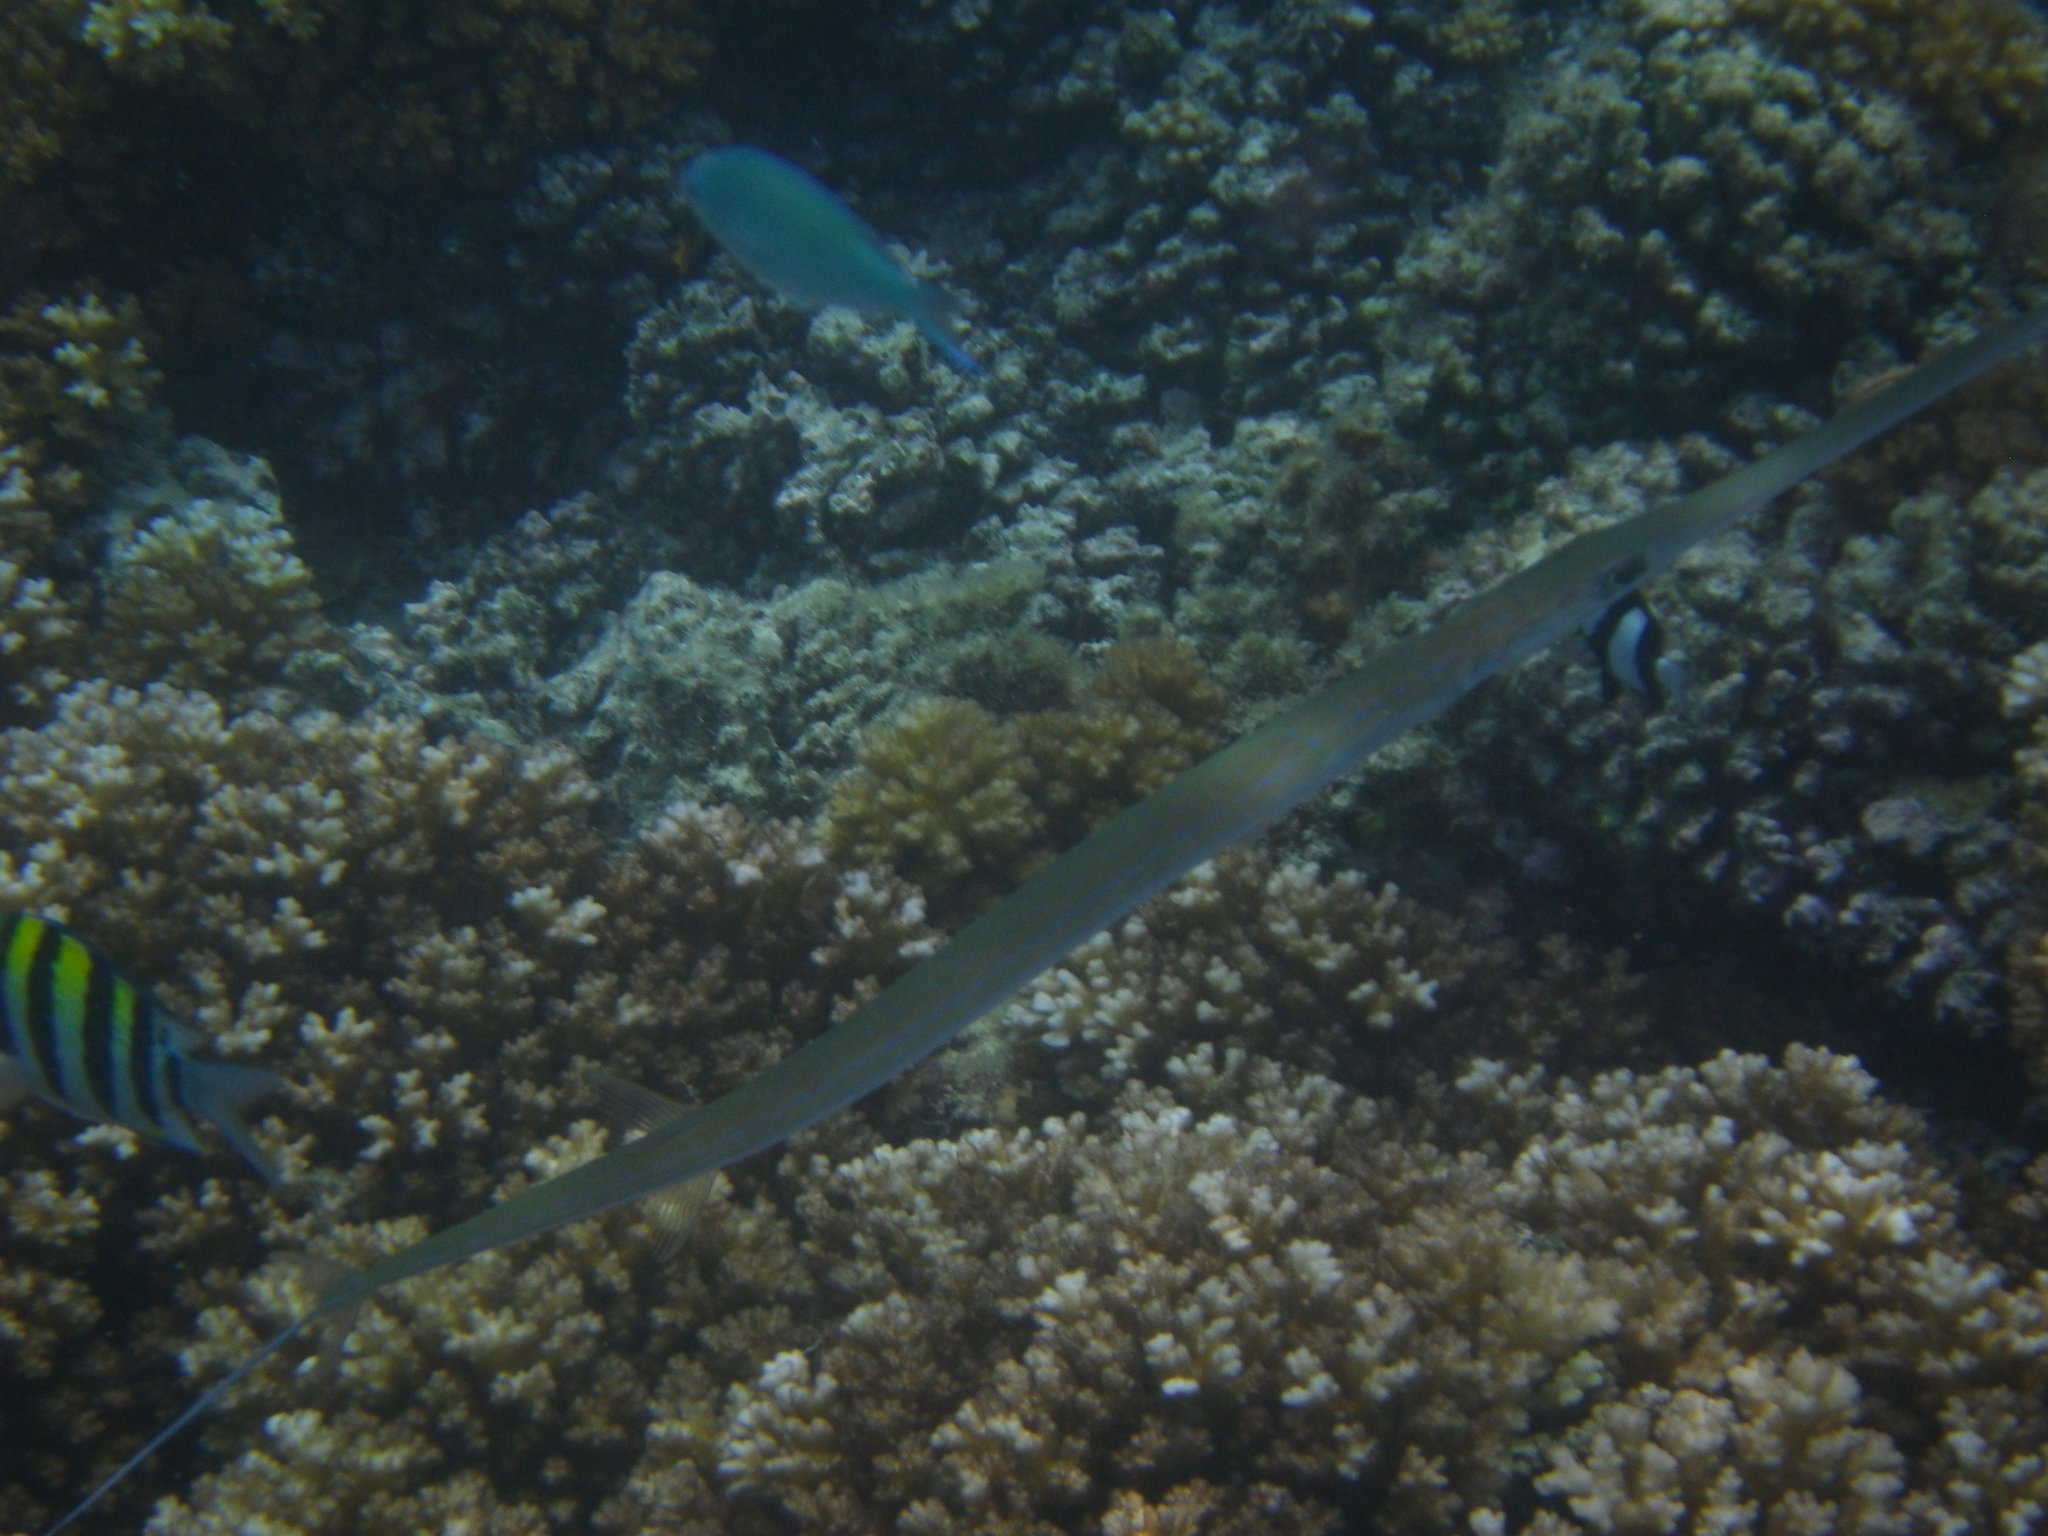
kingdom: Animalia
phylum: Chordata
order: Syngnathiformes
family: Fistulariidae
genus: Fistularia
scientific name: Fistularia commersonii
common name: Bluespotted cornetfish
